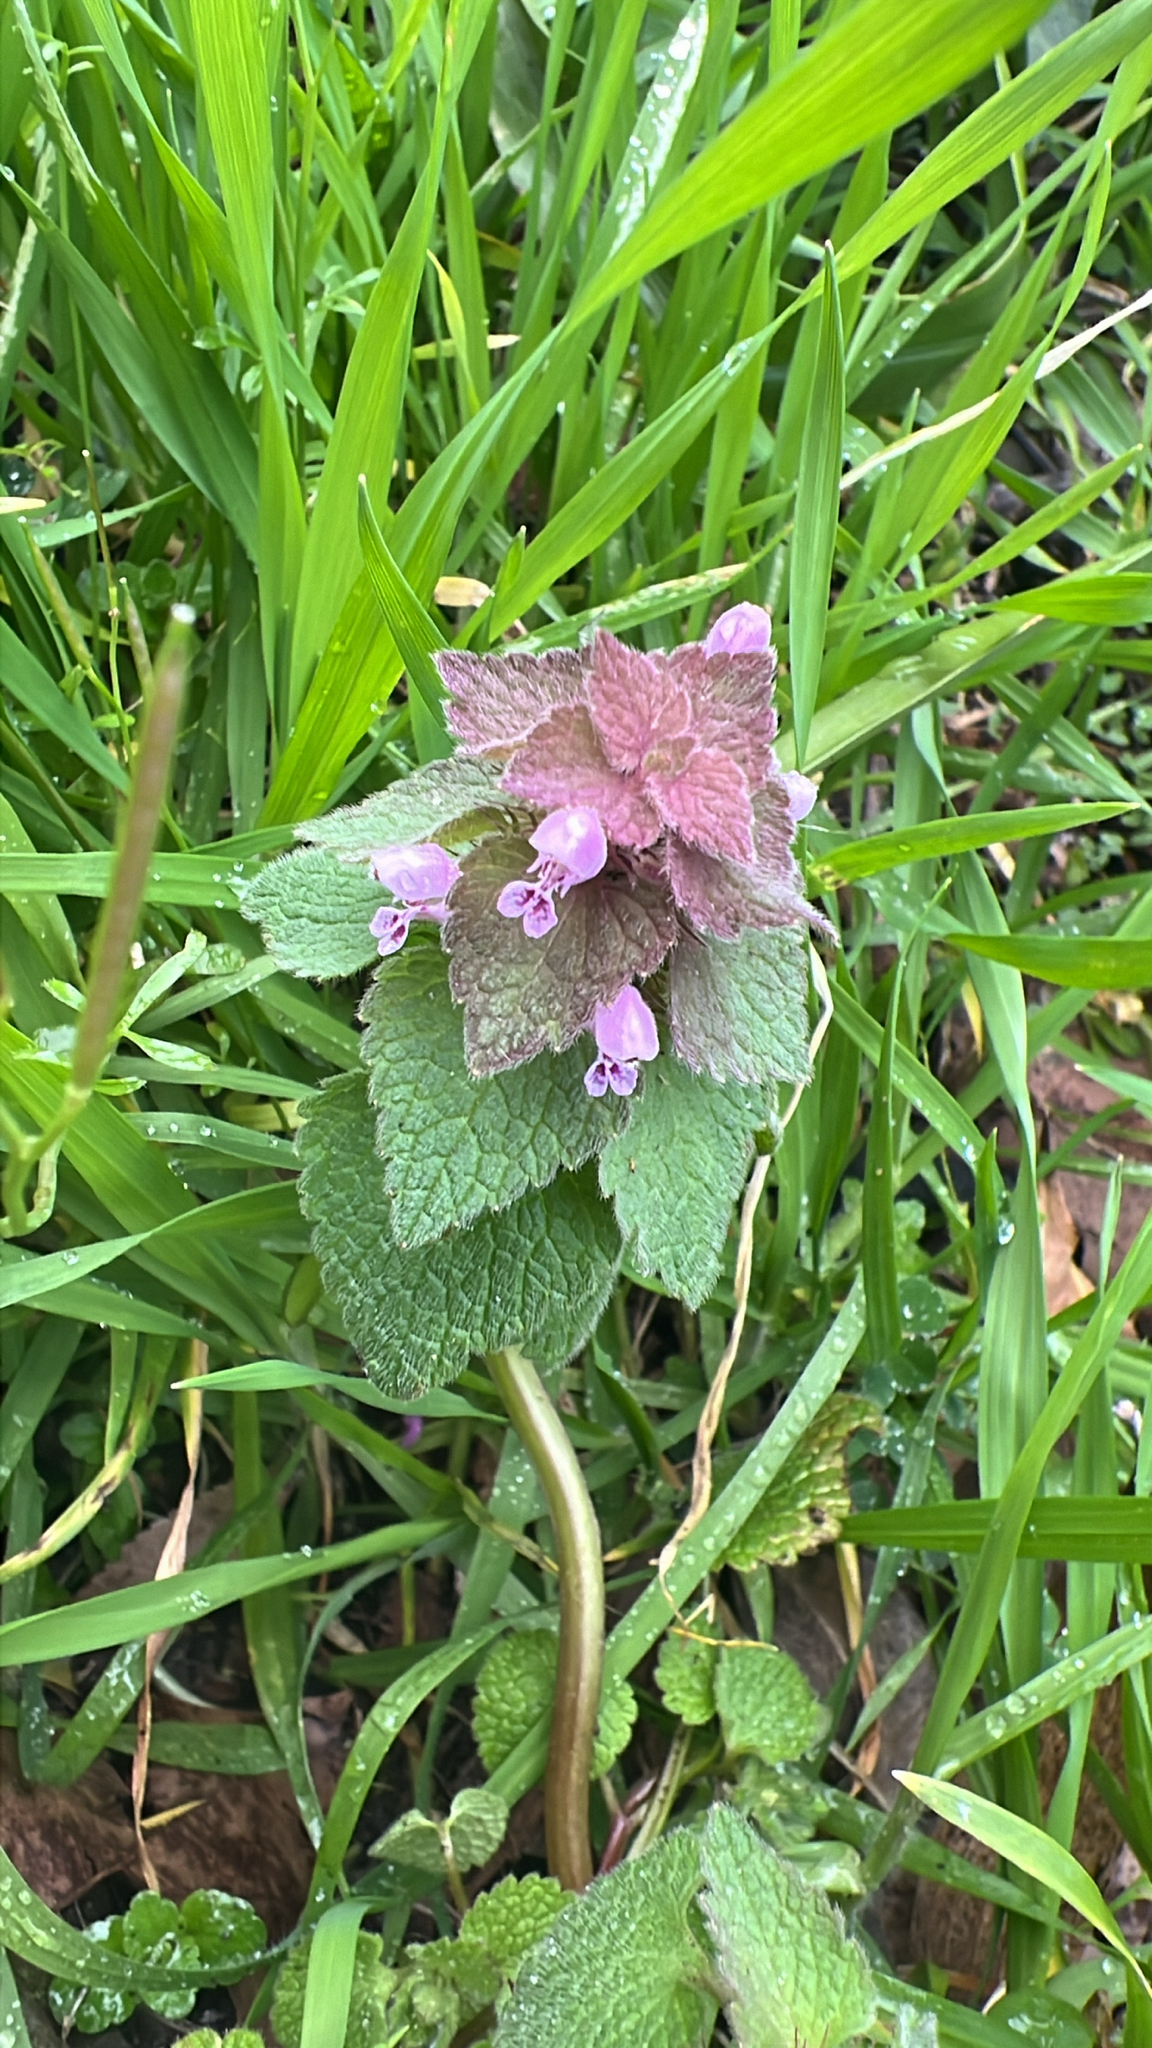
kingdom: Plantae
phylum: Tracheophyta
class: Magnoliopsida
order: Lamiales
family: Lamiaceae
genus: Lamium
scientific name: Lamium purpureum
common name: Red dead-nettle
